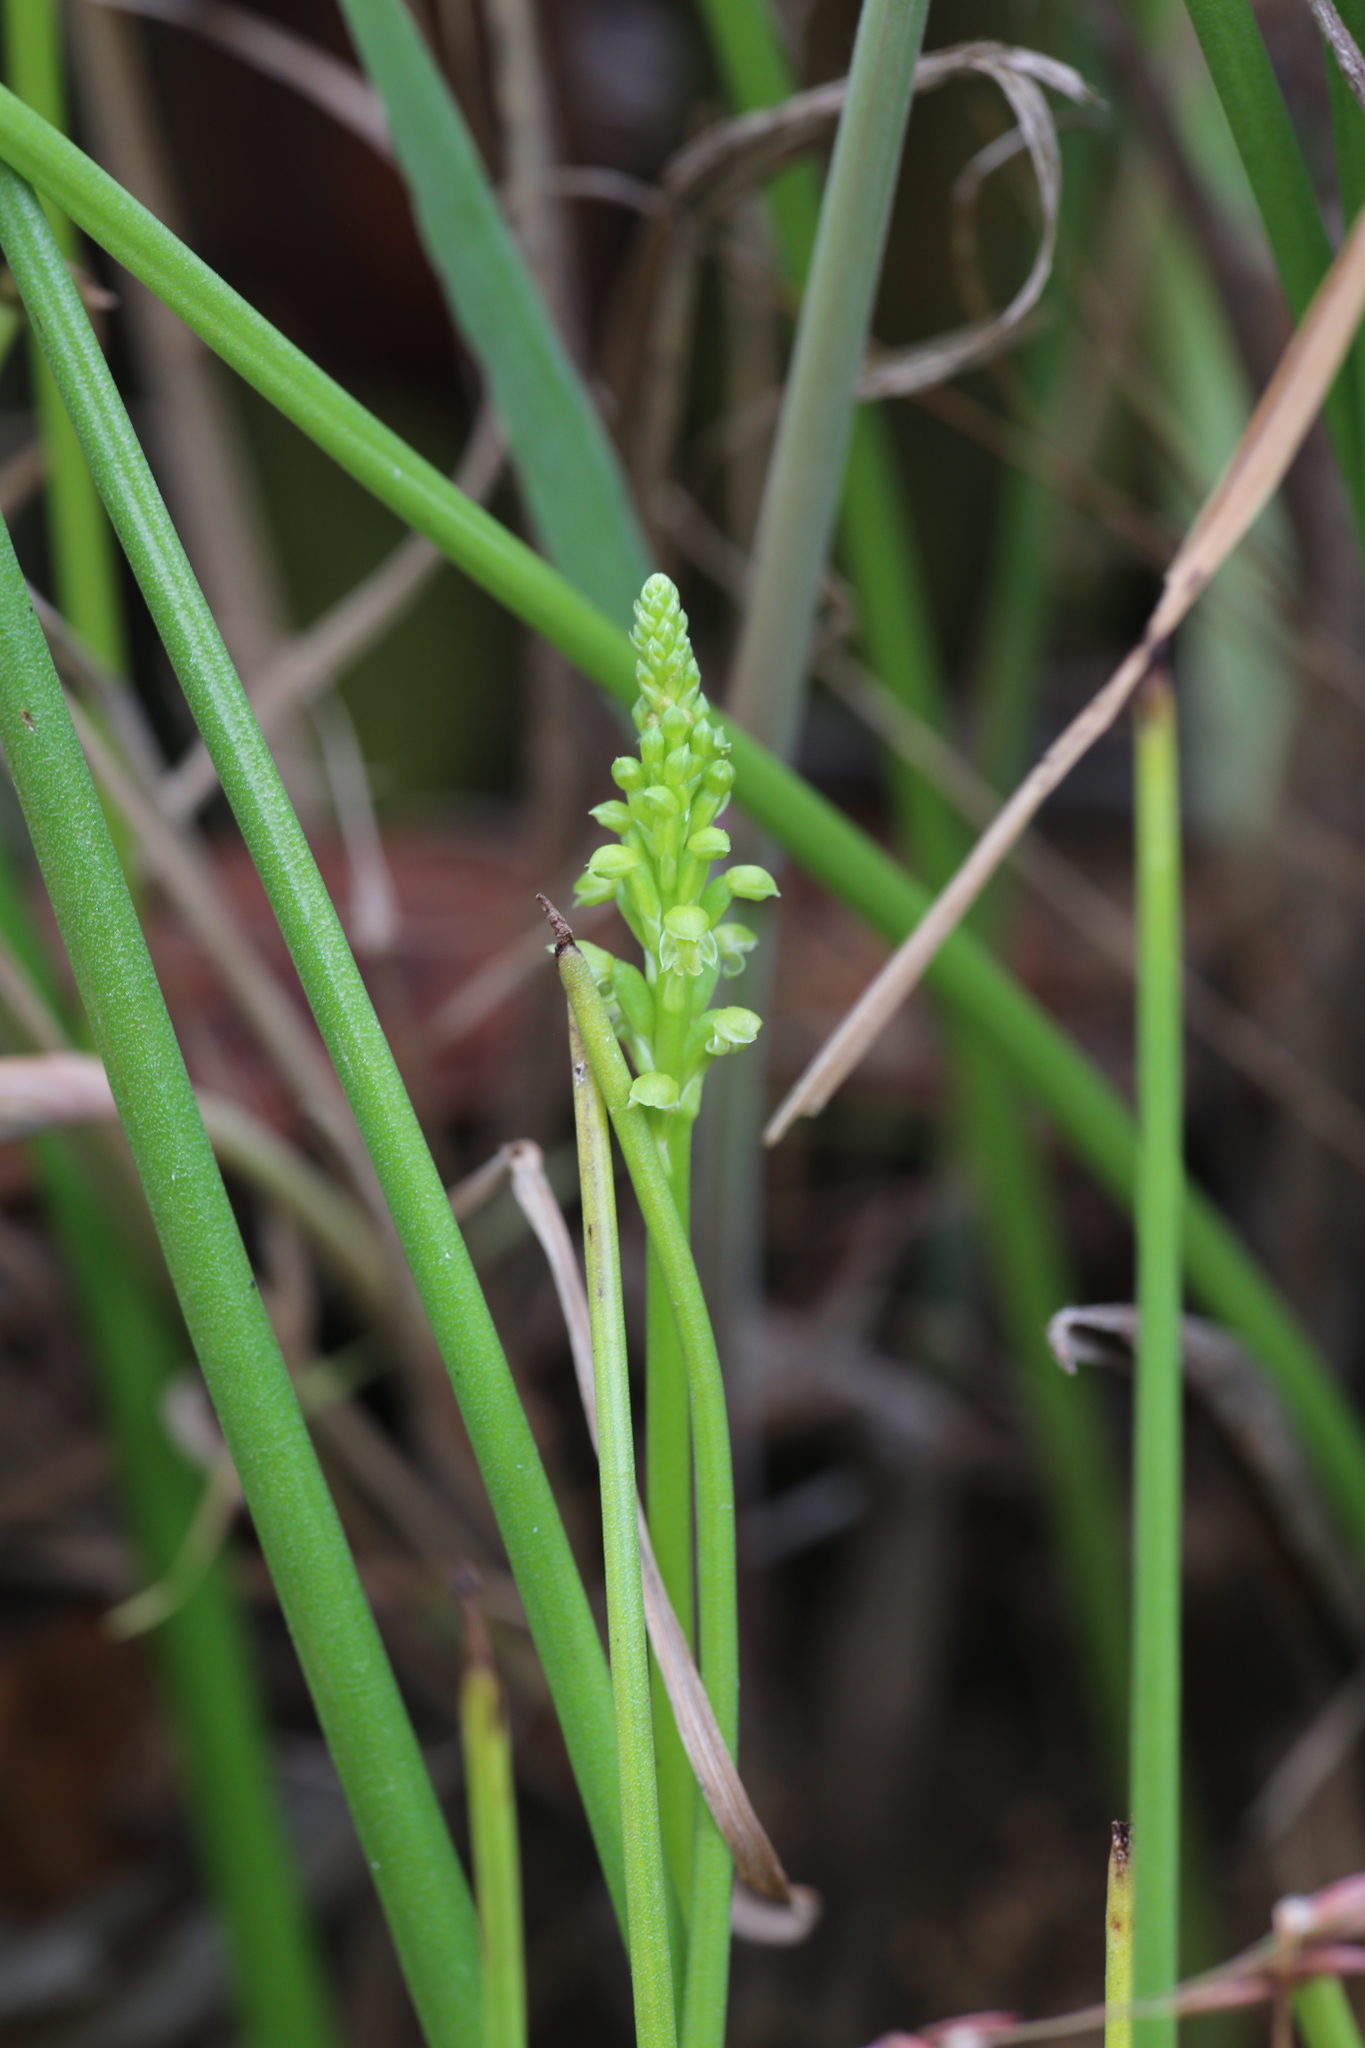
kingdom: Plantae
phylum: Tracheophyta
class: Liliopsida
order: Asparagales
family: Orchidaceae
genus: Microtis
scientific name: Microtis media
